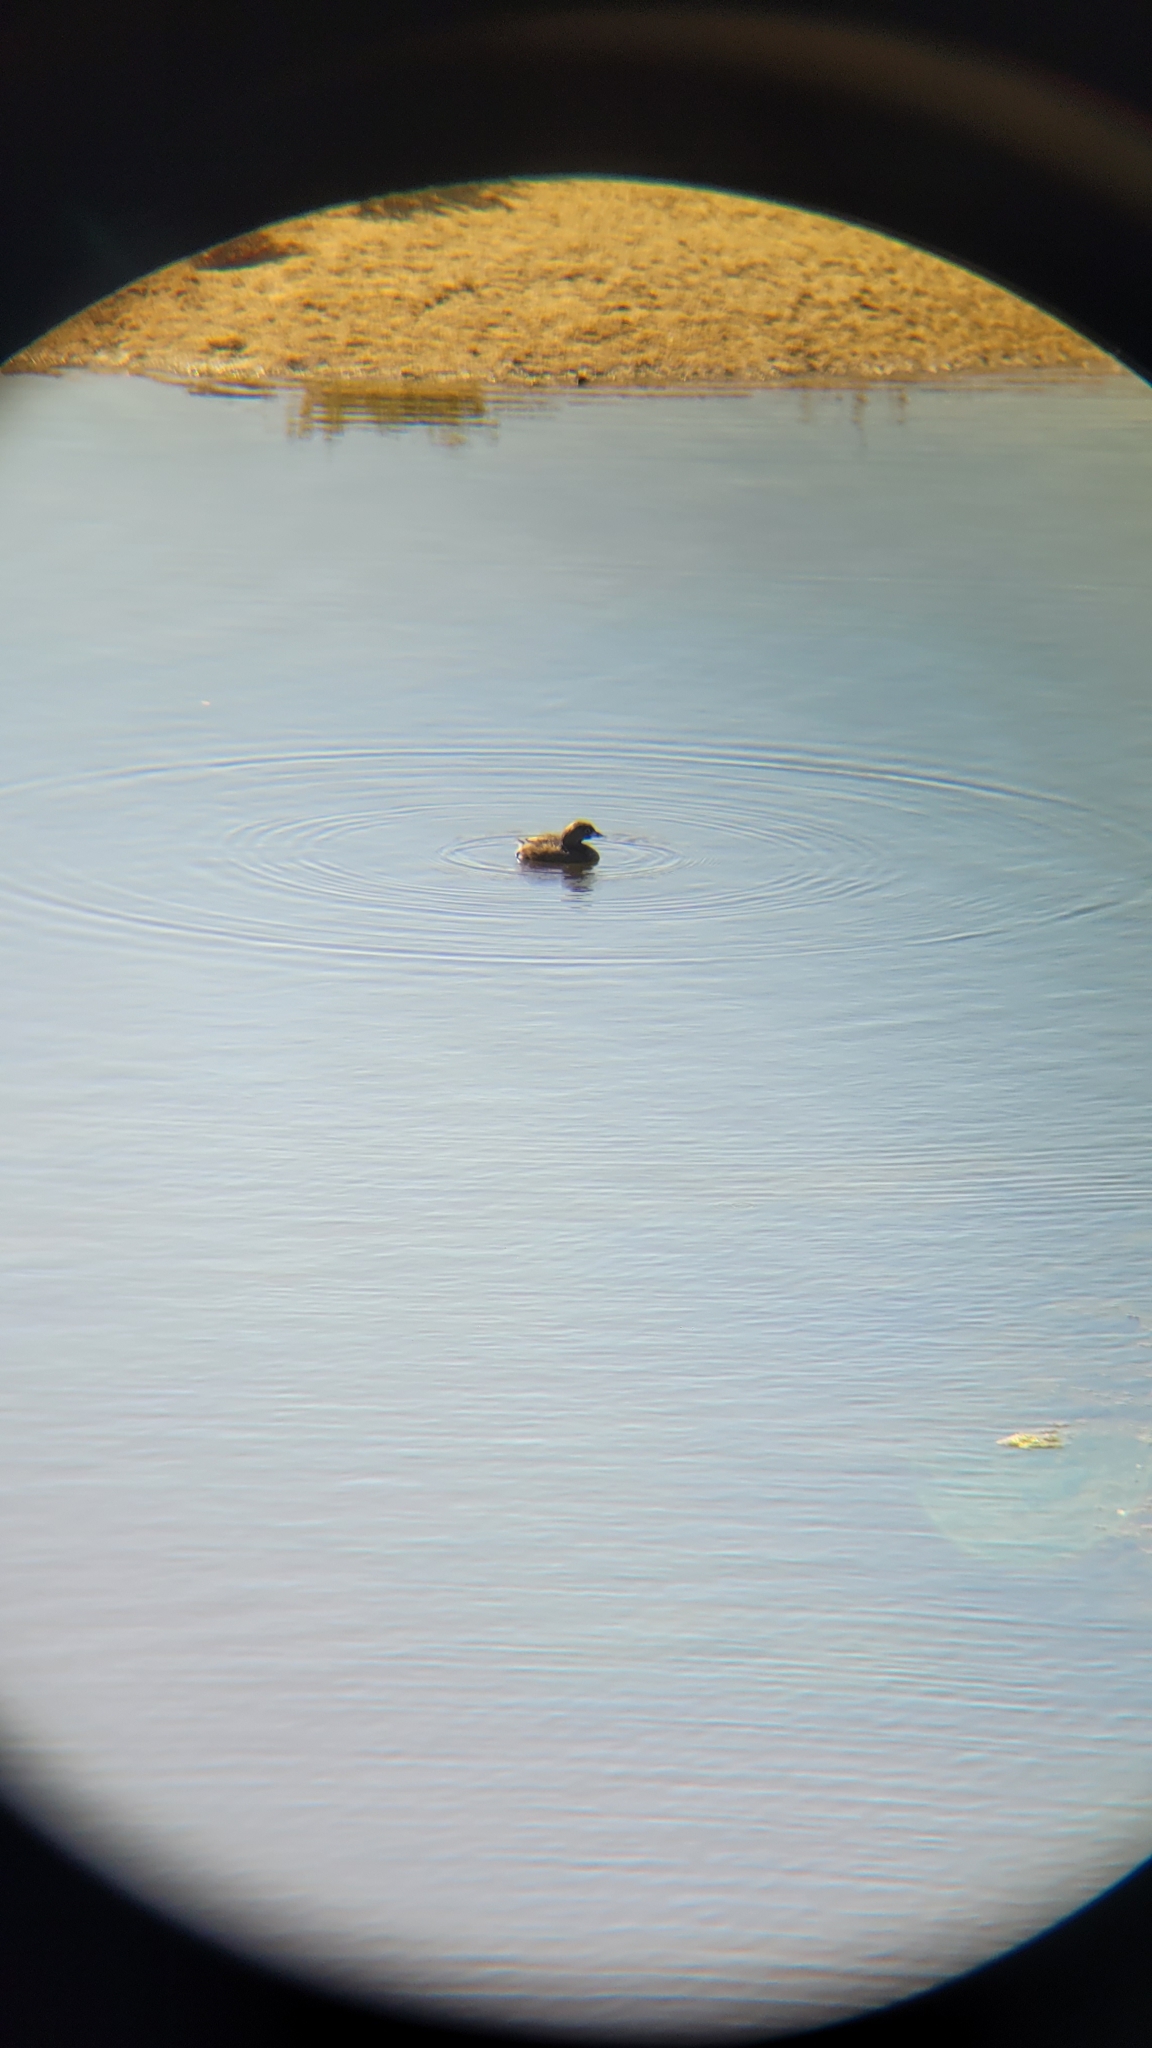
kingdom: Animalia
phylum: Chordata
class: Aves
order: Podicipediformes
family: Podicipedidae
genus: Podilymbus
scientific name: Podilymbus podiceps
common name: Pied-billed grebe
